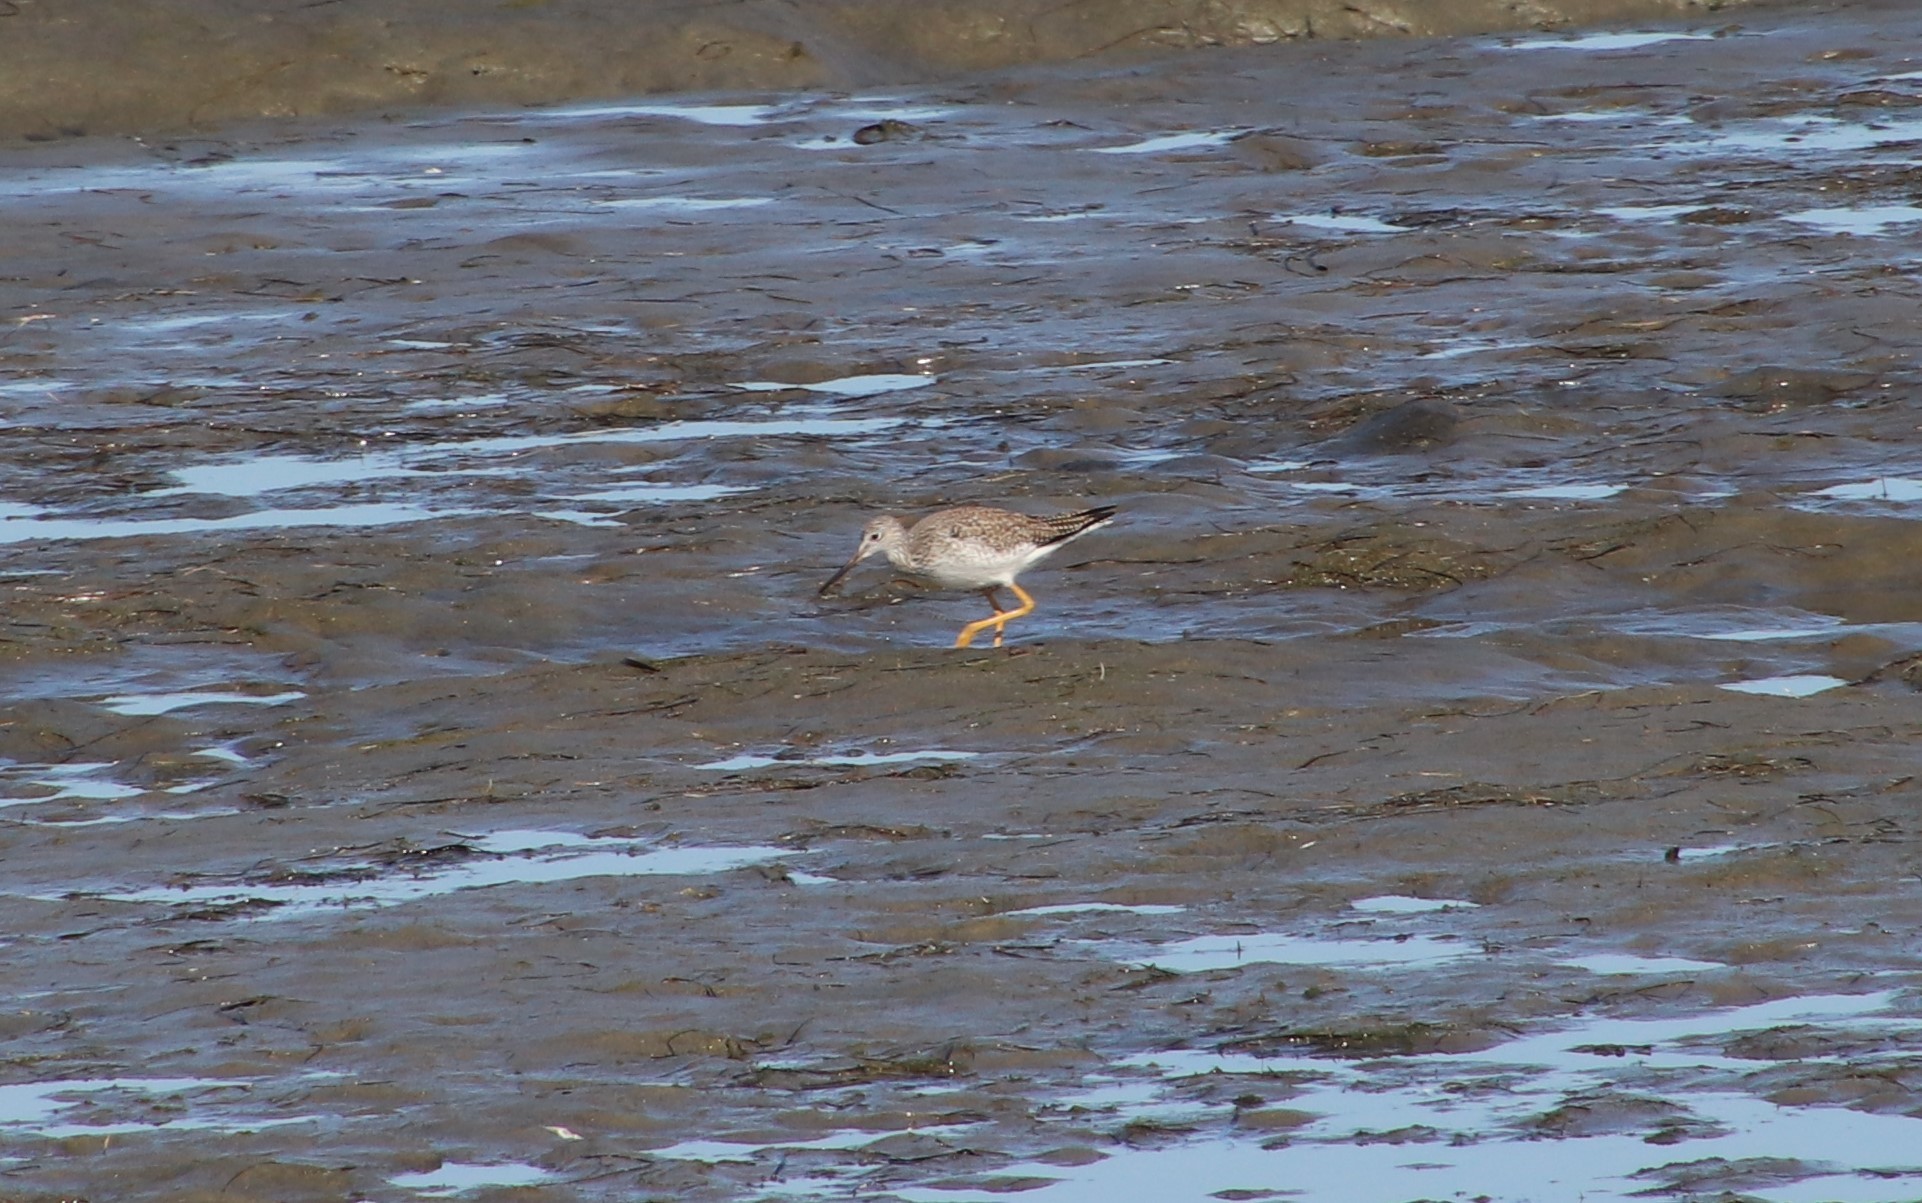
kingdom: Animalia
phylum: Chordata
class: Aves
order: Charadriiformes
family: Scolopacidae
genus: Tringa
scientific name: Tringa melanoleuca
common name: Greater yellowlegs
